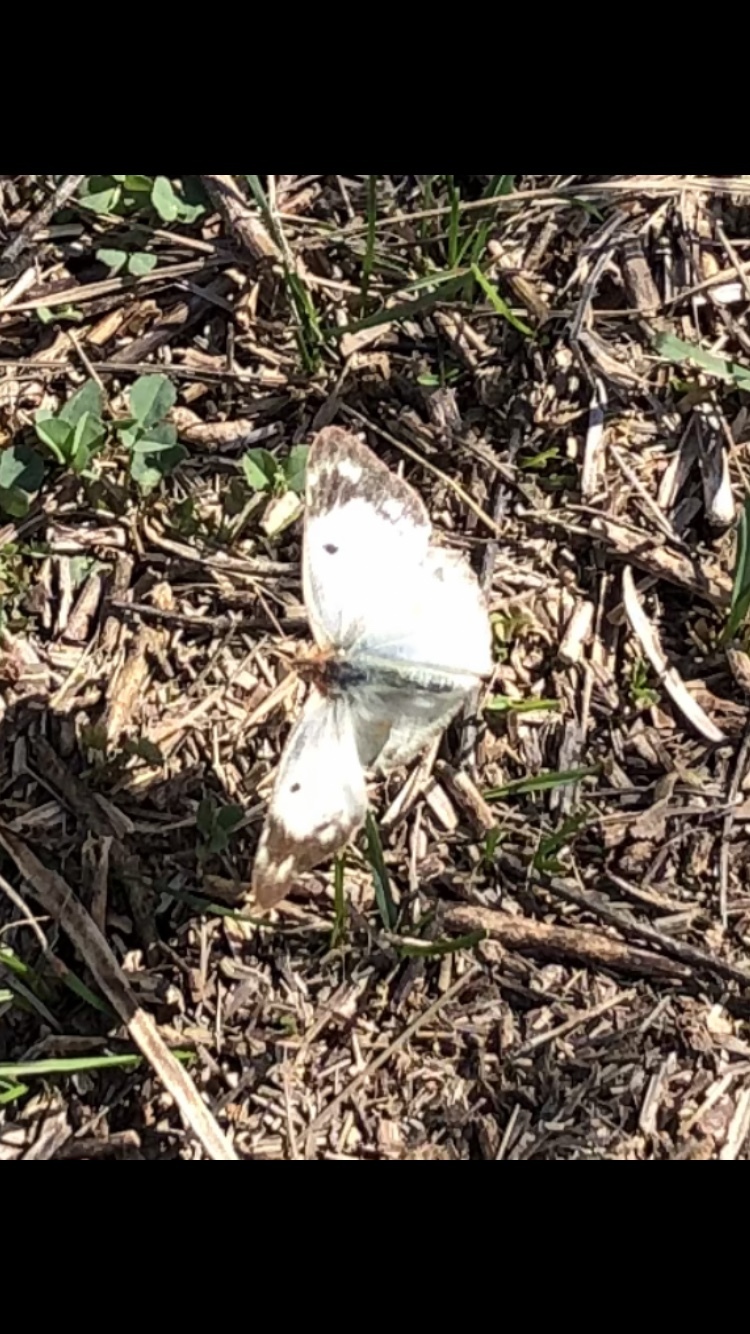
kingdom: Animalia
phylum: Arthropoda
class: Insecta
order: Lepidoptera
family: Pieridae
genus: Colias
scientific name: Colias hyale
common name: Pale clouded yellow
